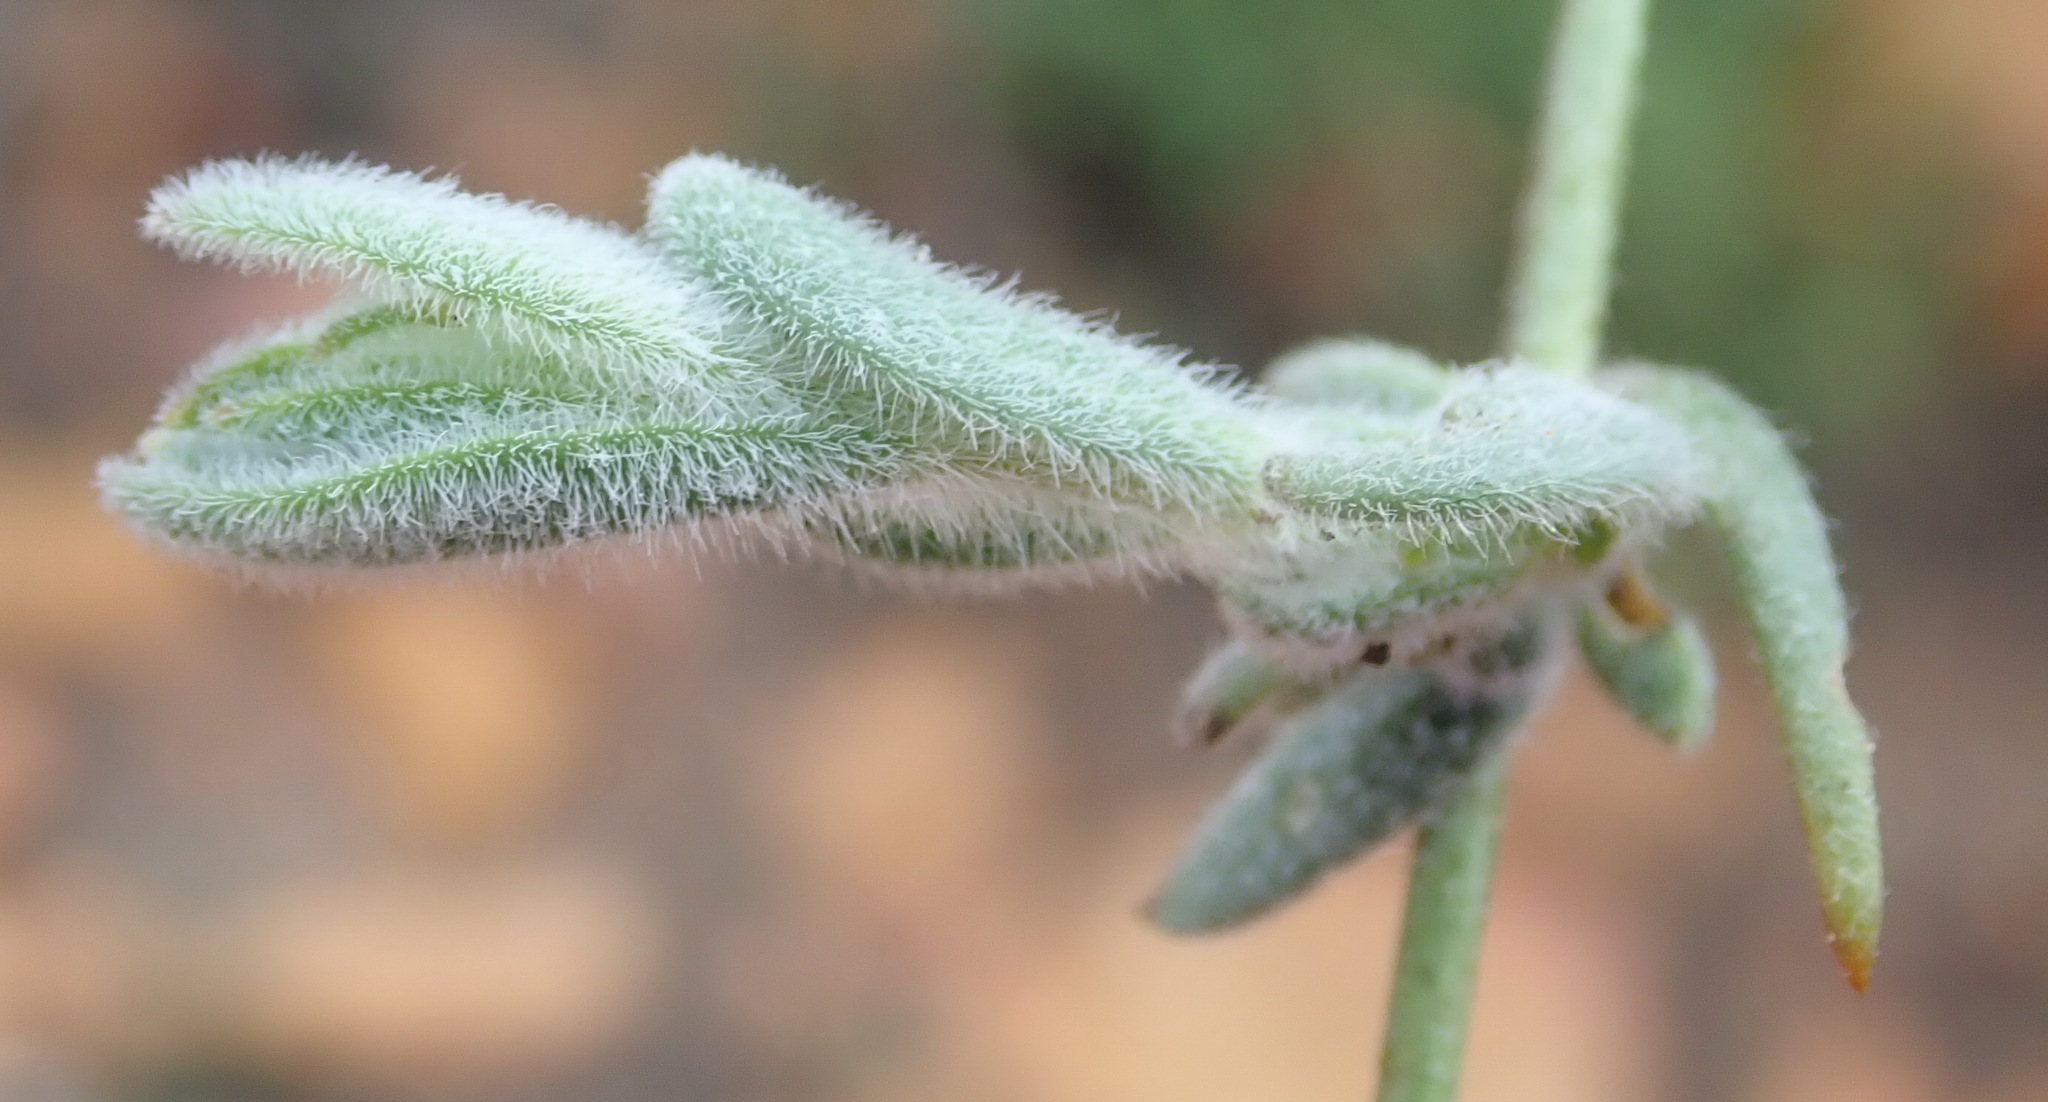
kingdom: Plantae
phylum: Tracheophyta
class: Magnoliopsida
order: Brassicales
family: Brassicaceae
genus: Heliophila
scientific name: Heliophila linearis
